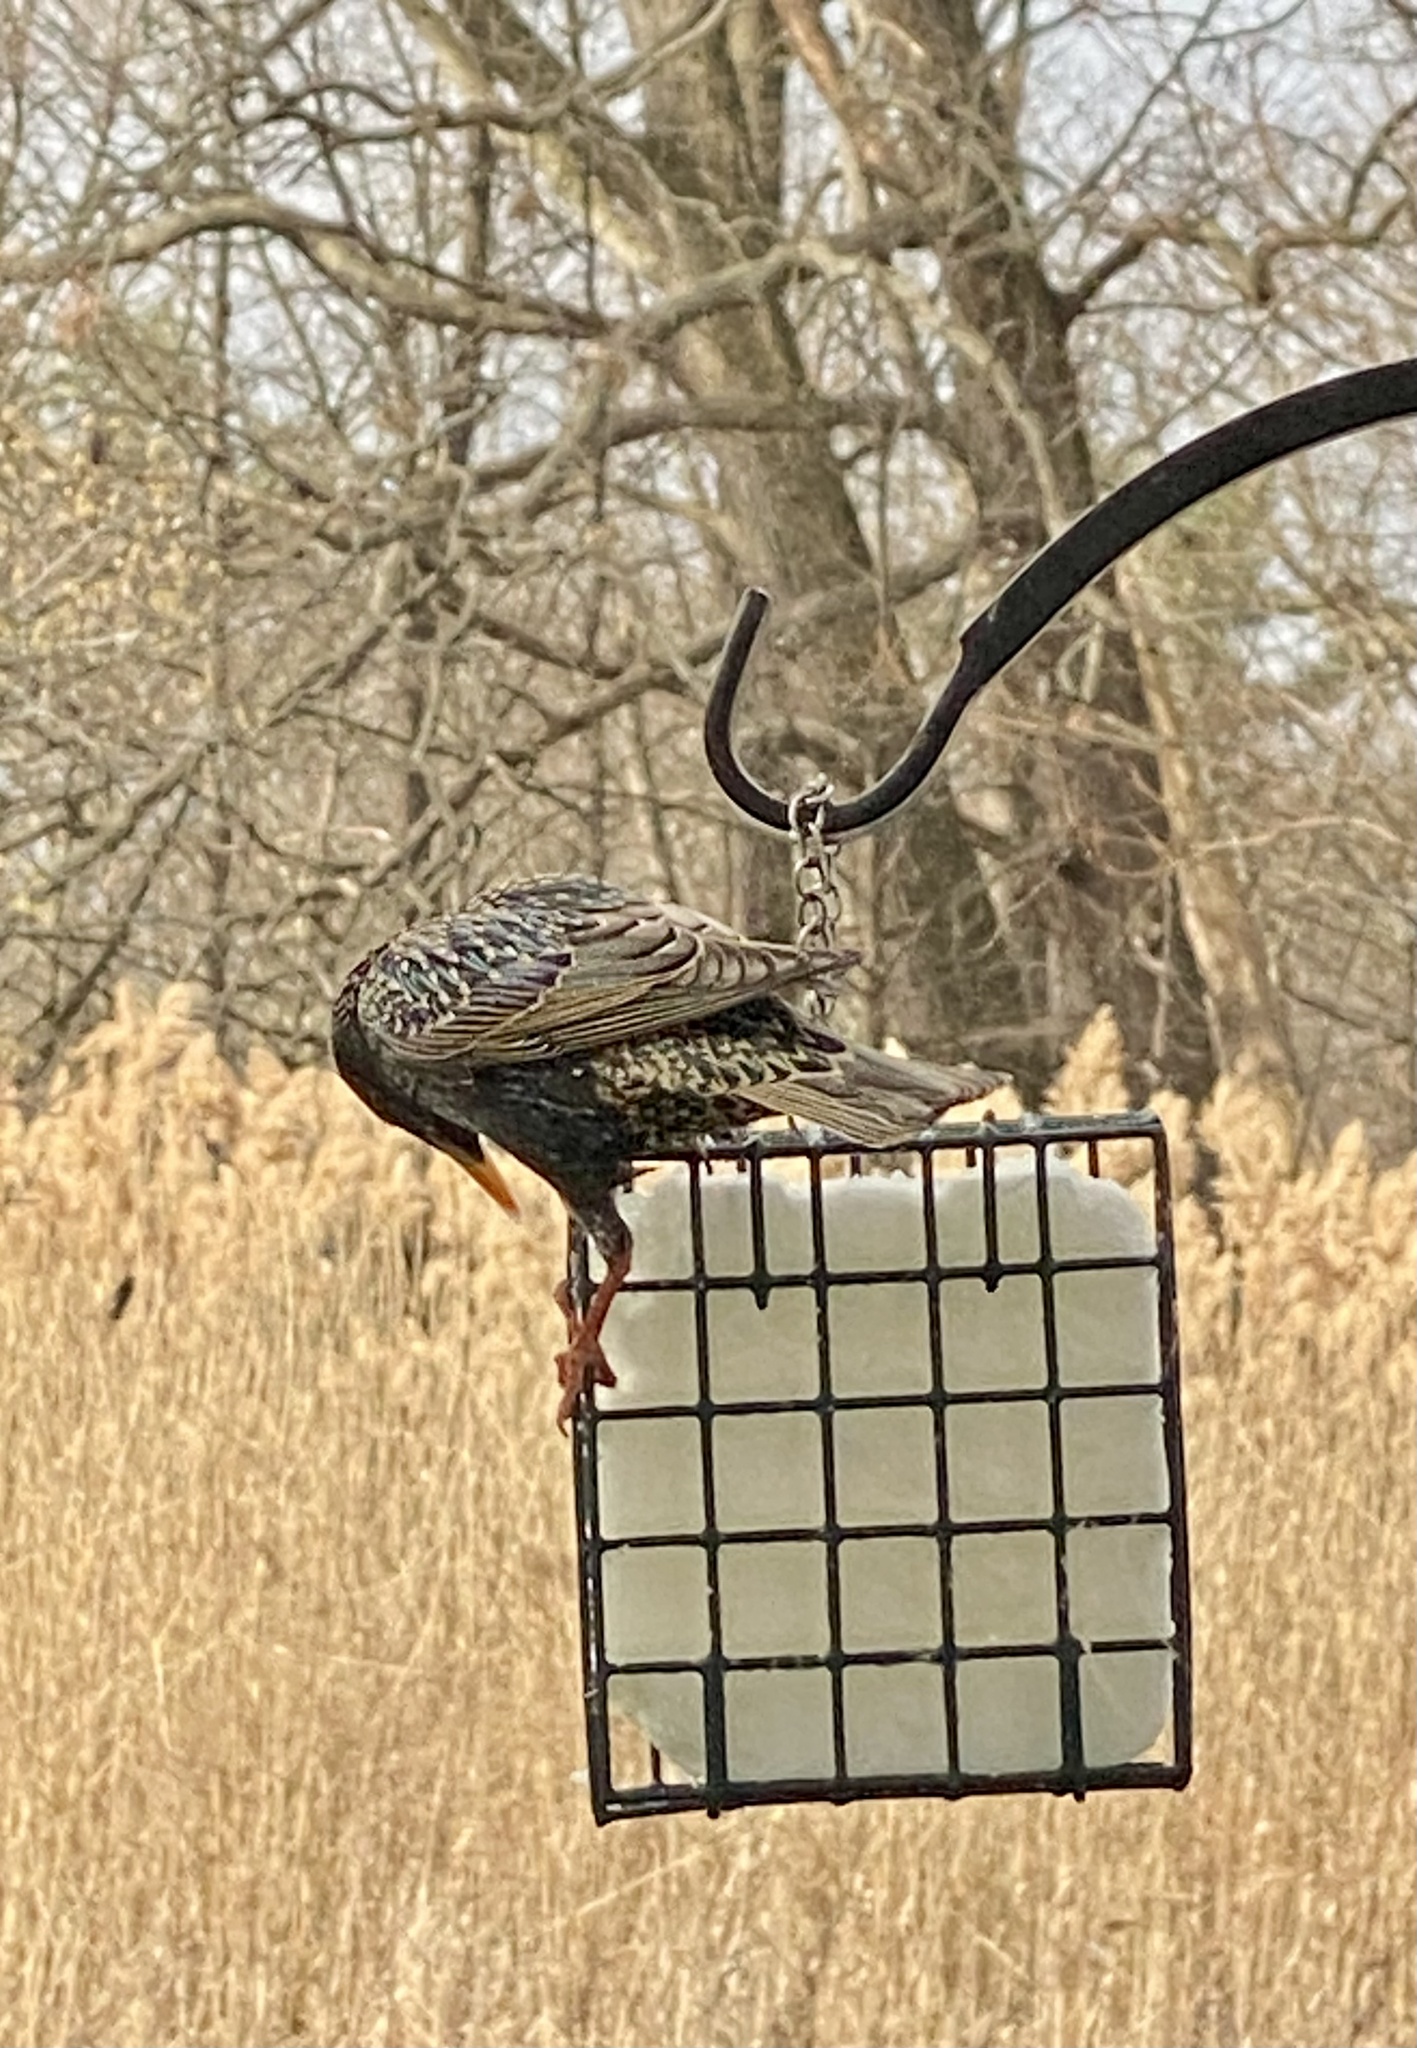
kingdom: Animalia
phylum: Chordata
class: Aves
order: Passeriformes
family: Sturnidae
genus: Sturnus
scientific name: Sturnus vulgaris
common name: Common starling
